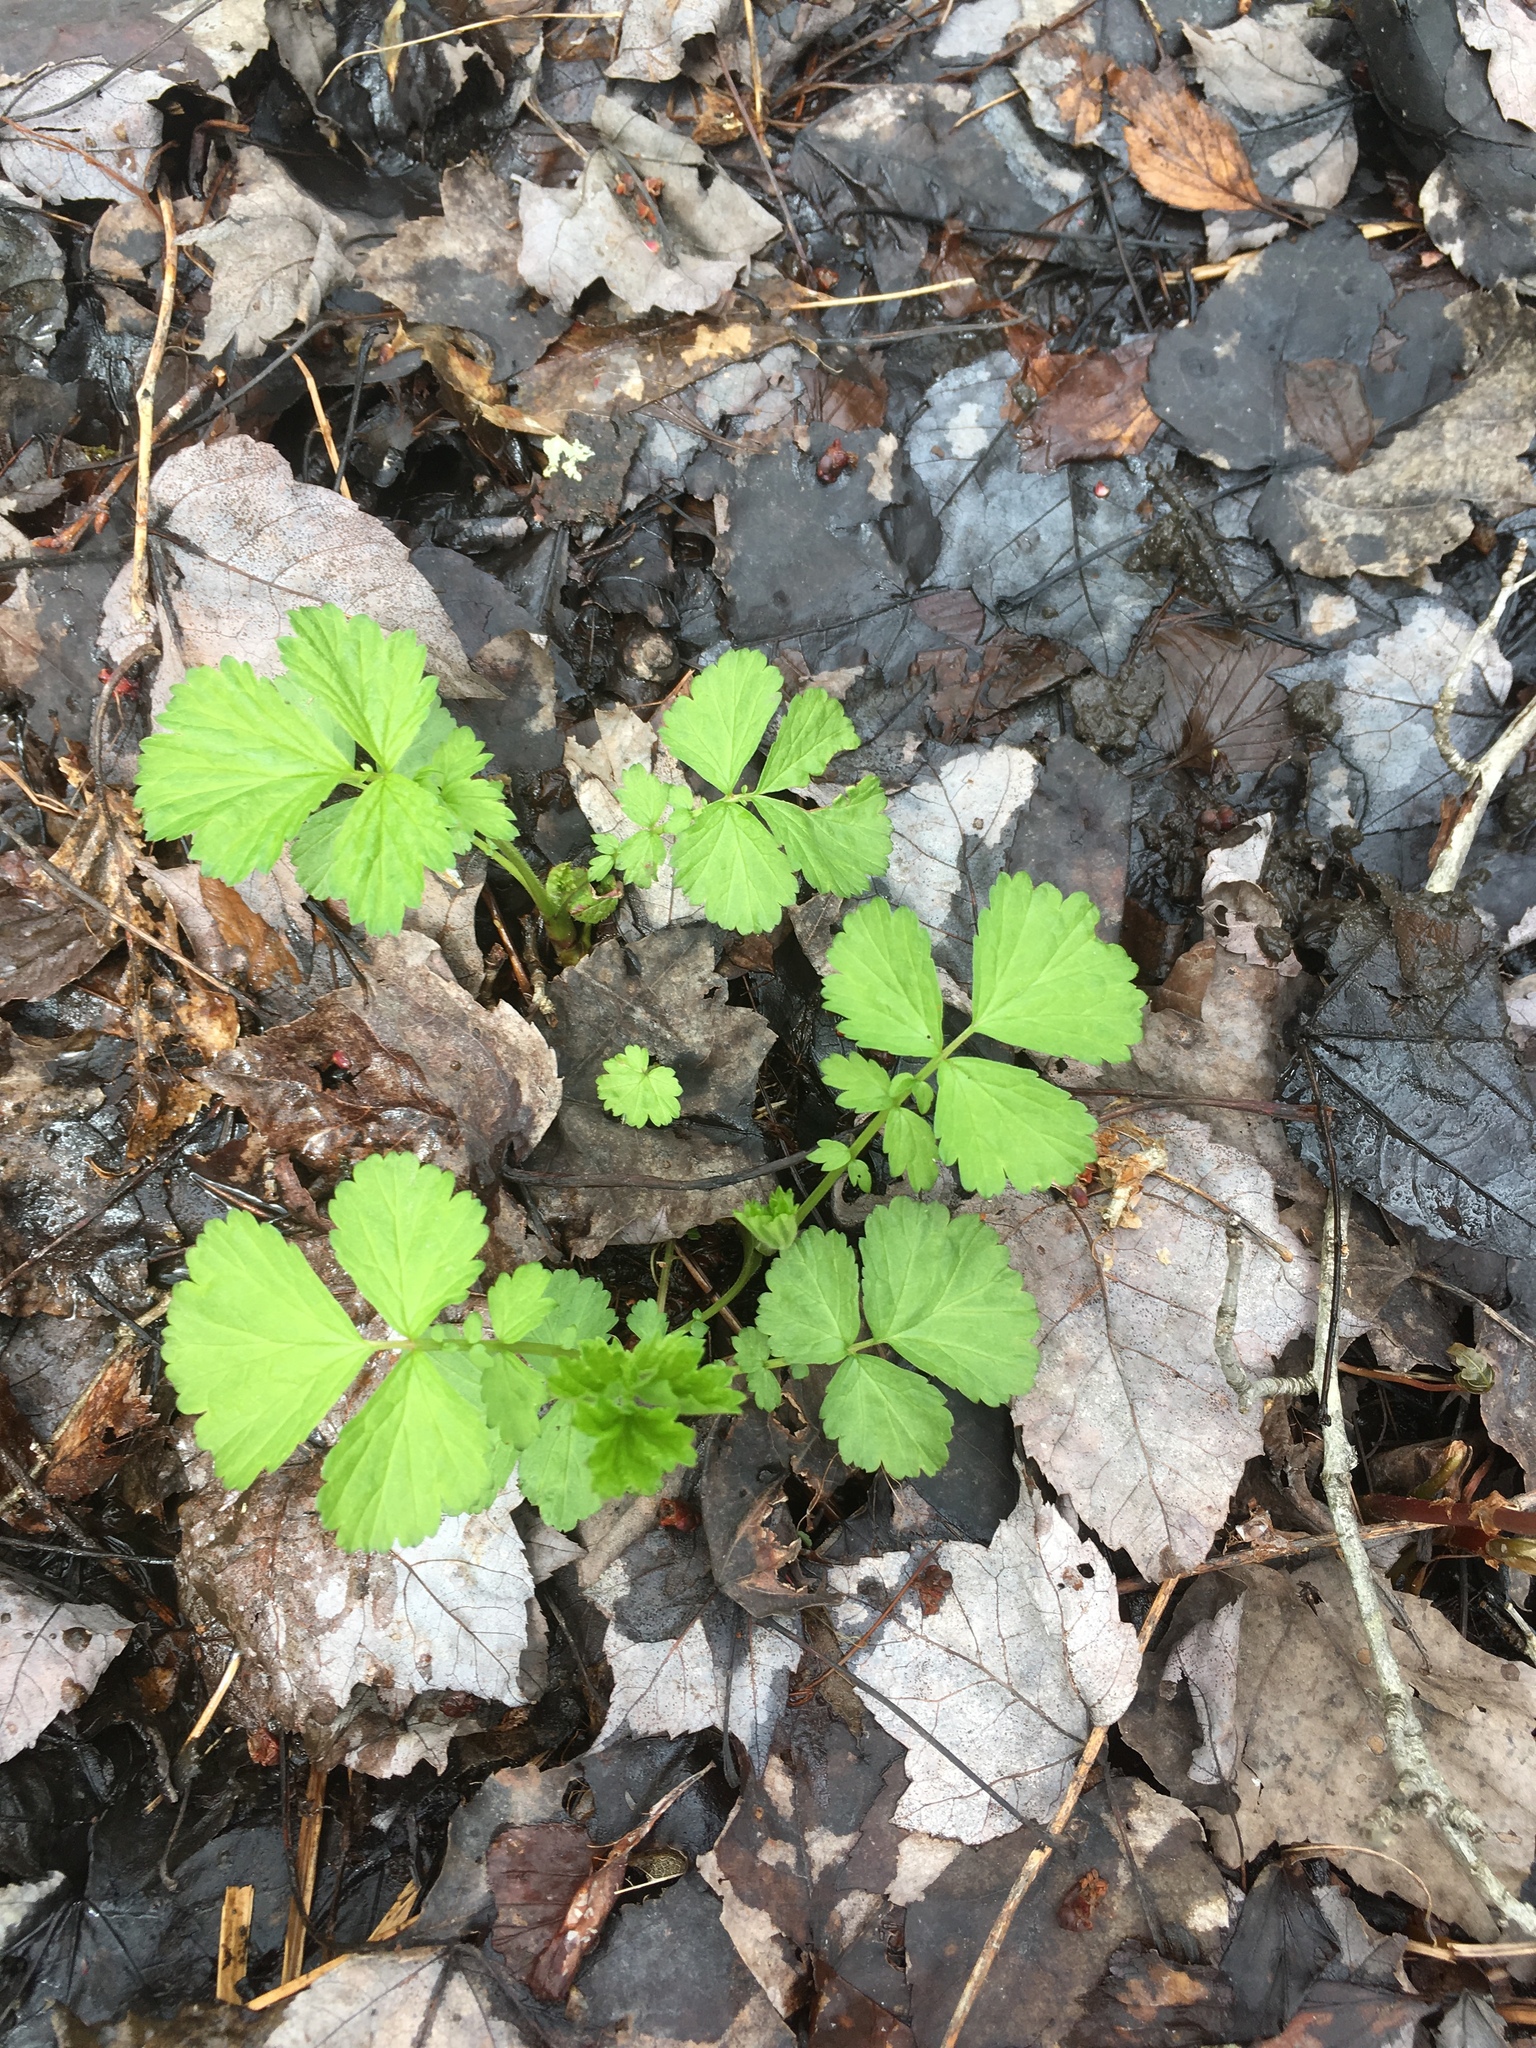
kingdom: Plantae
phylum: Tracheophyta
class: Magnoliopsida
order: Rosales
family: Rosaceae
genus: Geum
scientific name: Geum rivale
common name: Water avens
